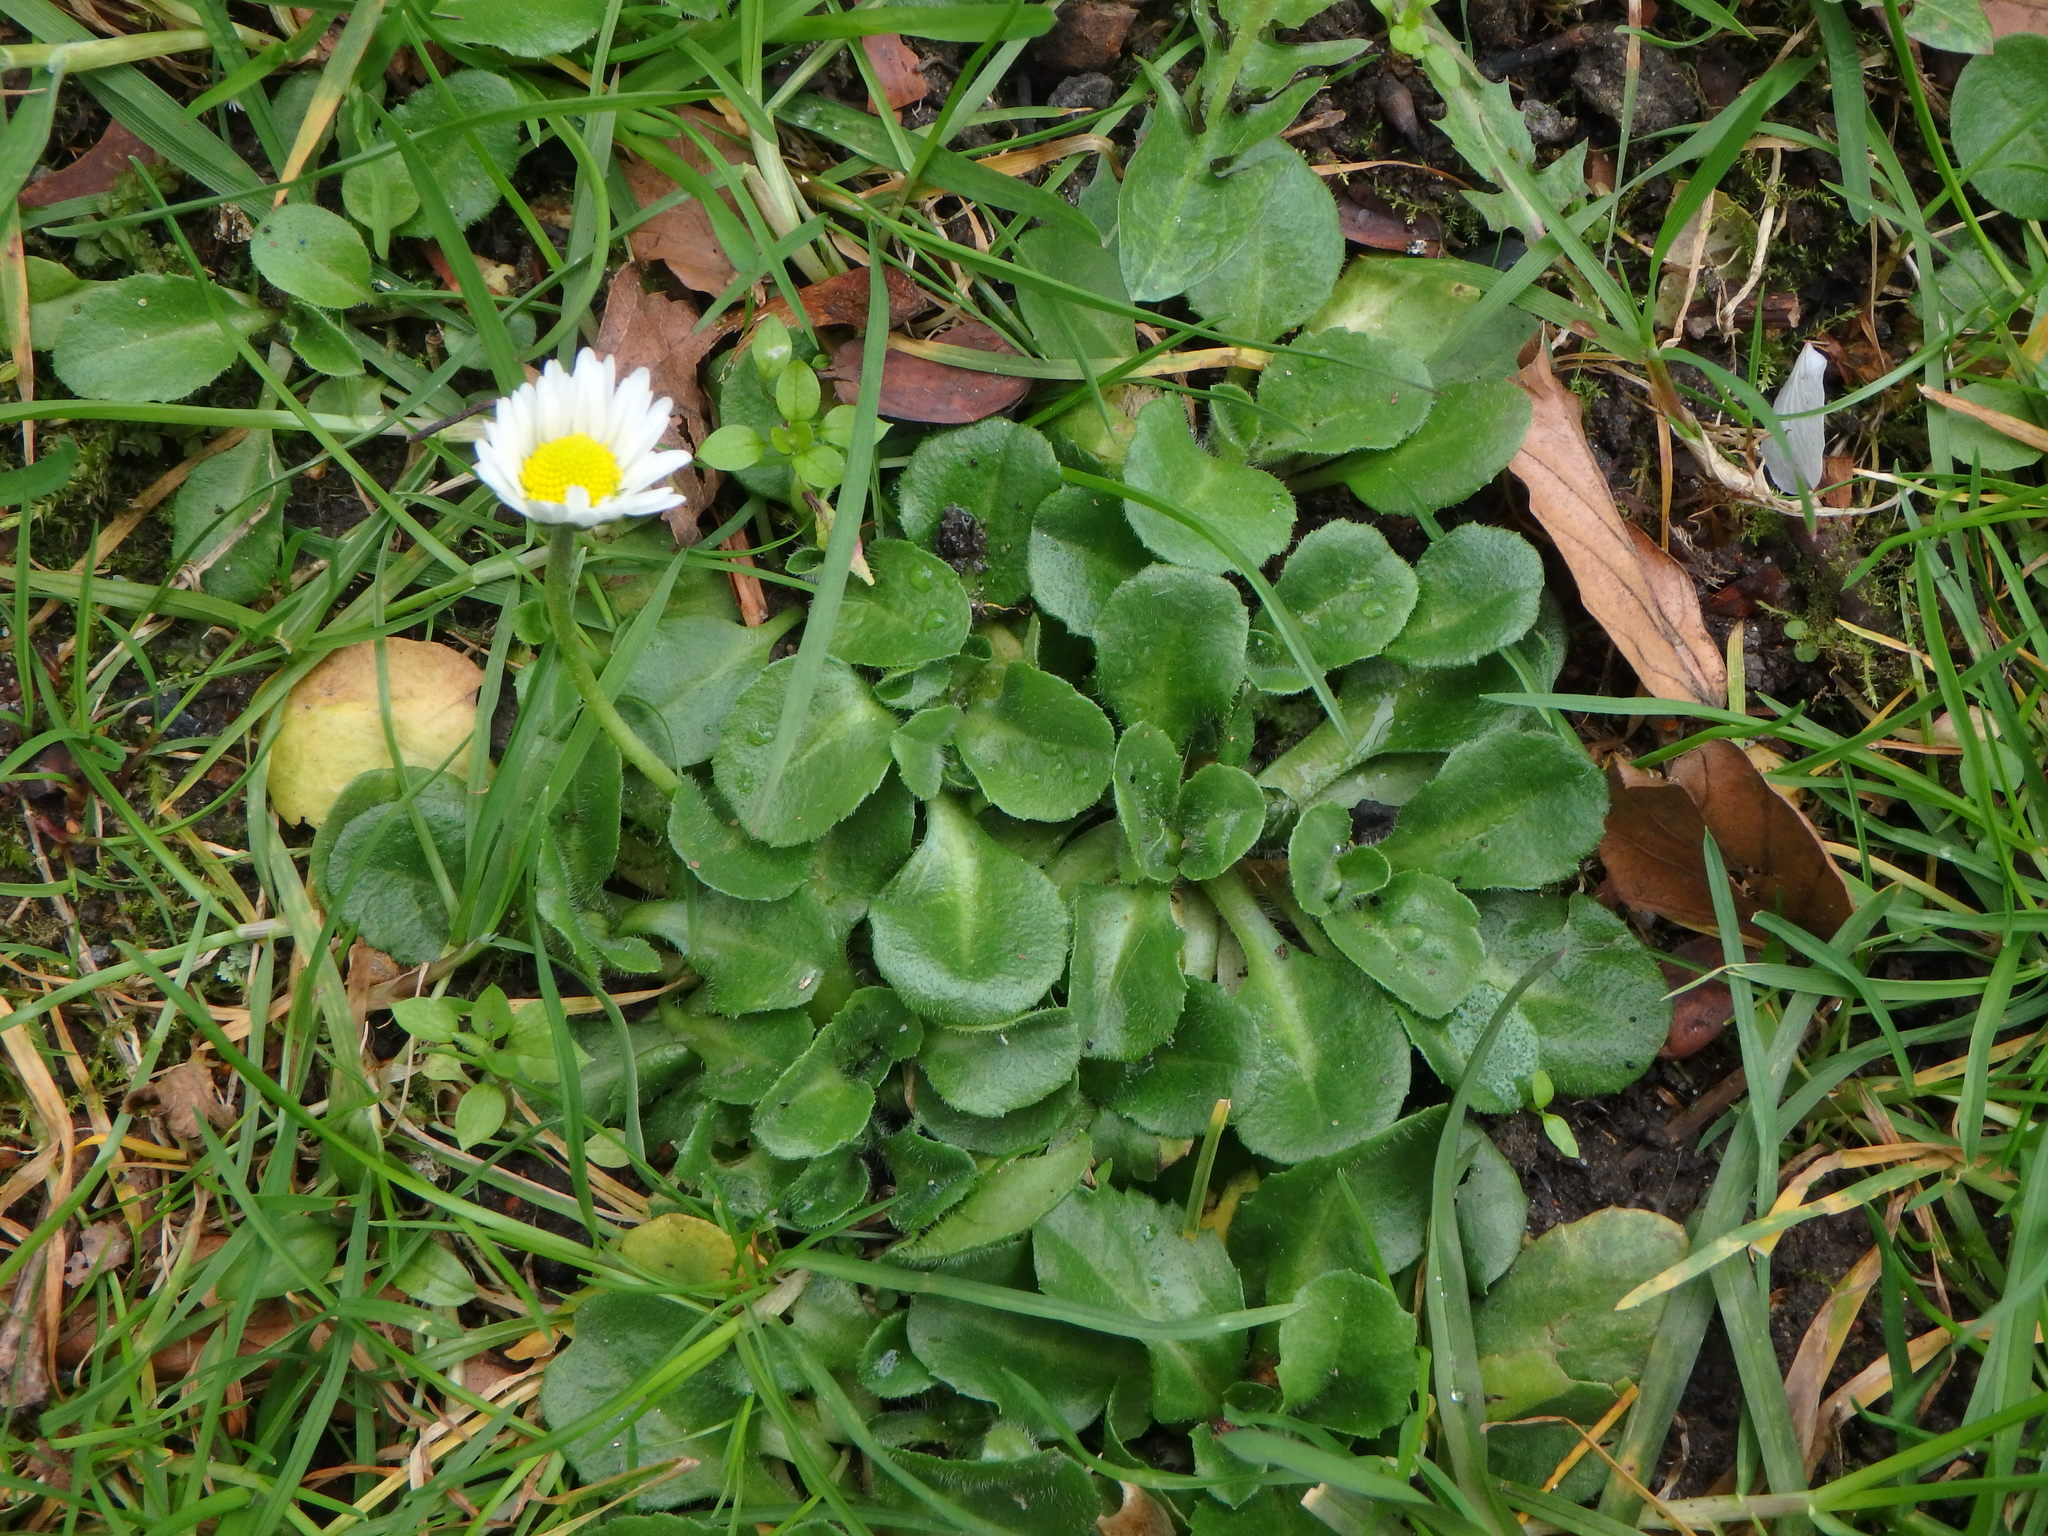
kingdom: Plantae
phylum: Tracheophyta
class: Magnoliopsida
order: Asterales
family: Asteraceae
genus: Bellis
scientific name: Bellis perennis
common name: Lawndaisy
